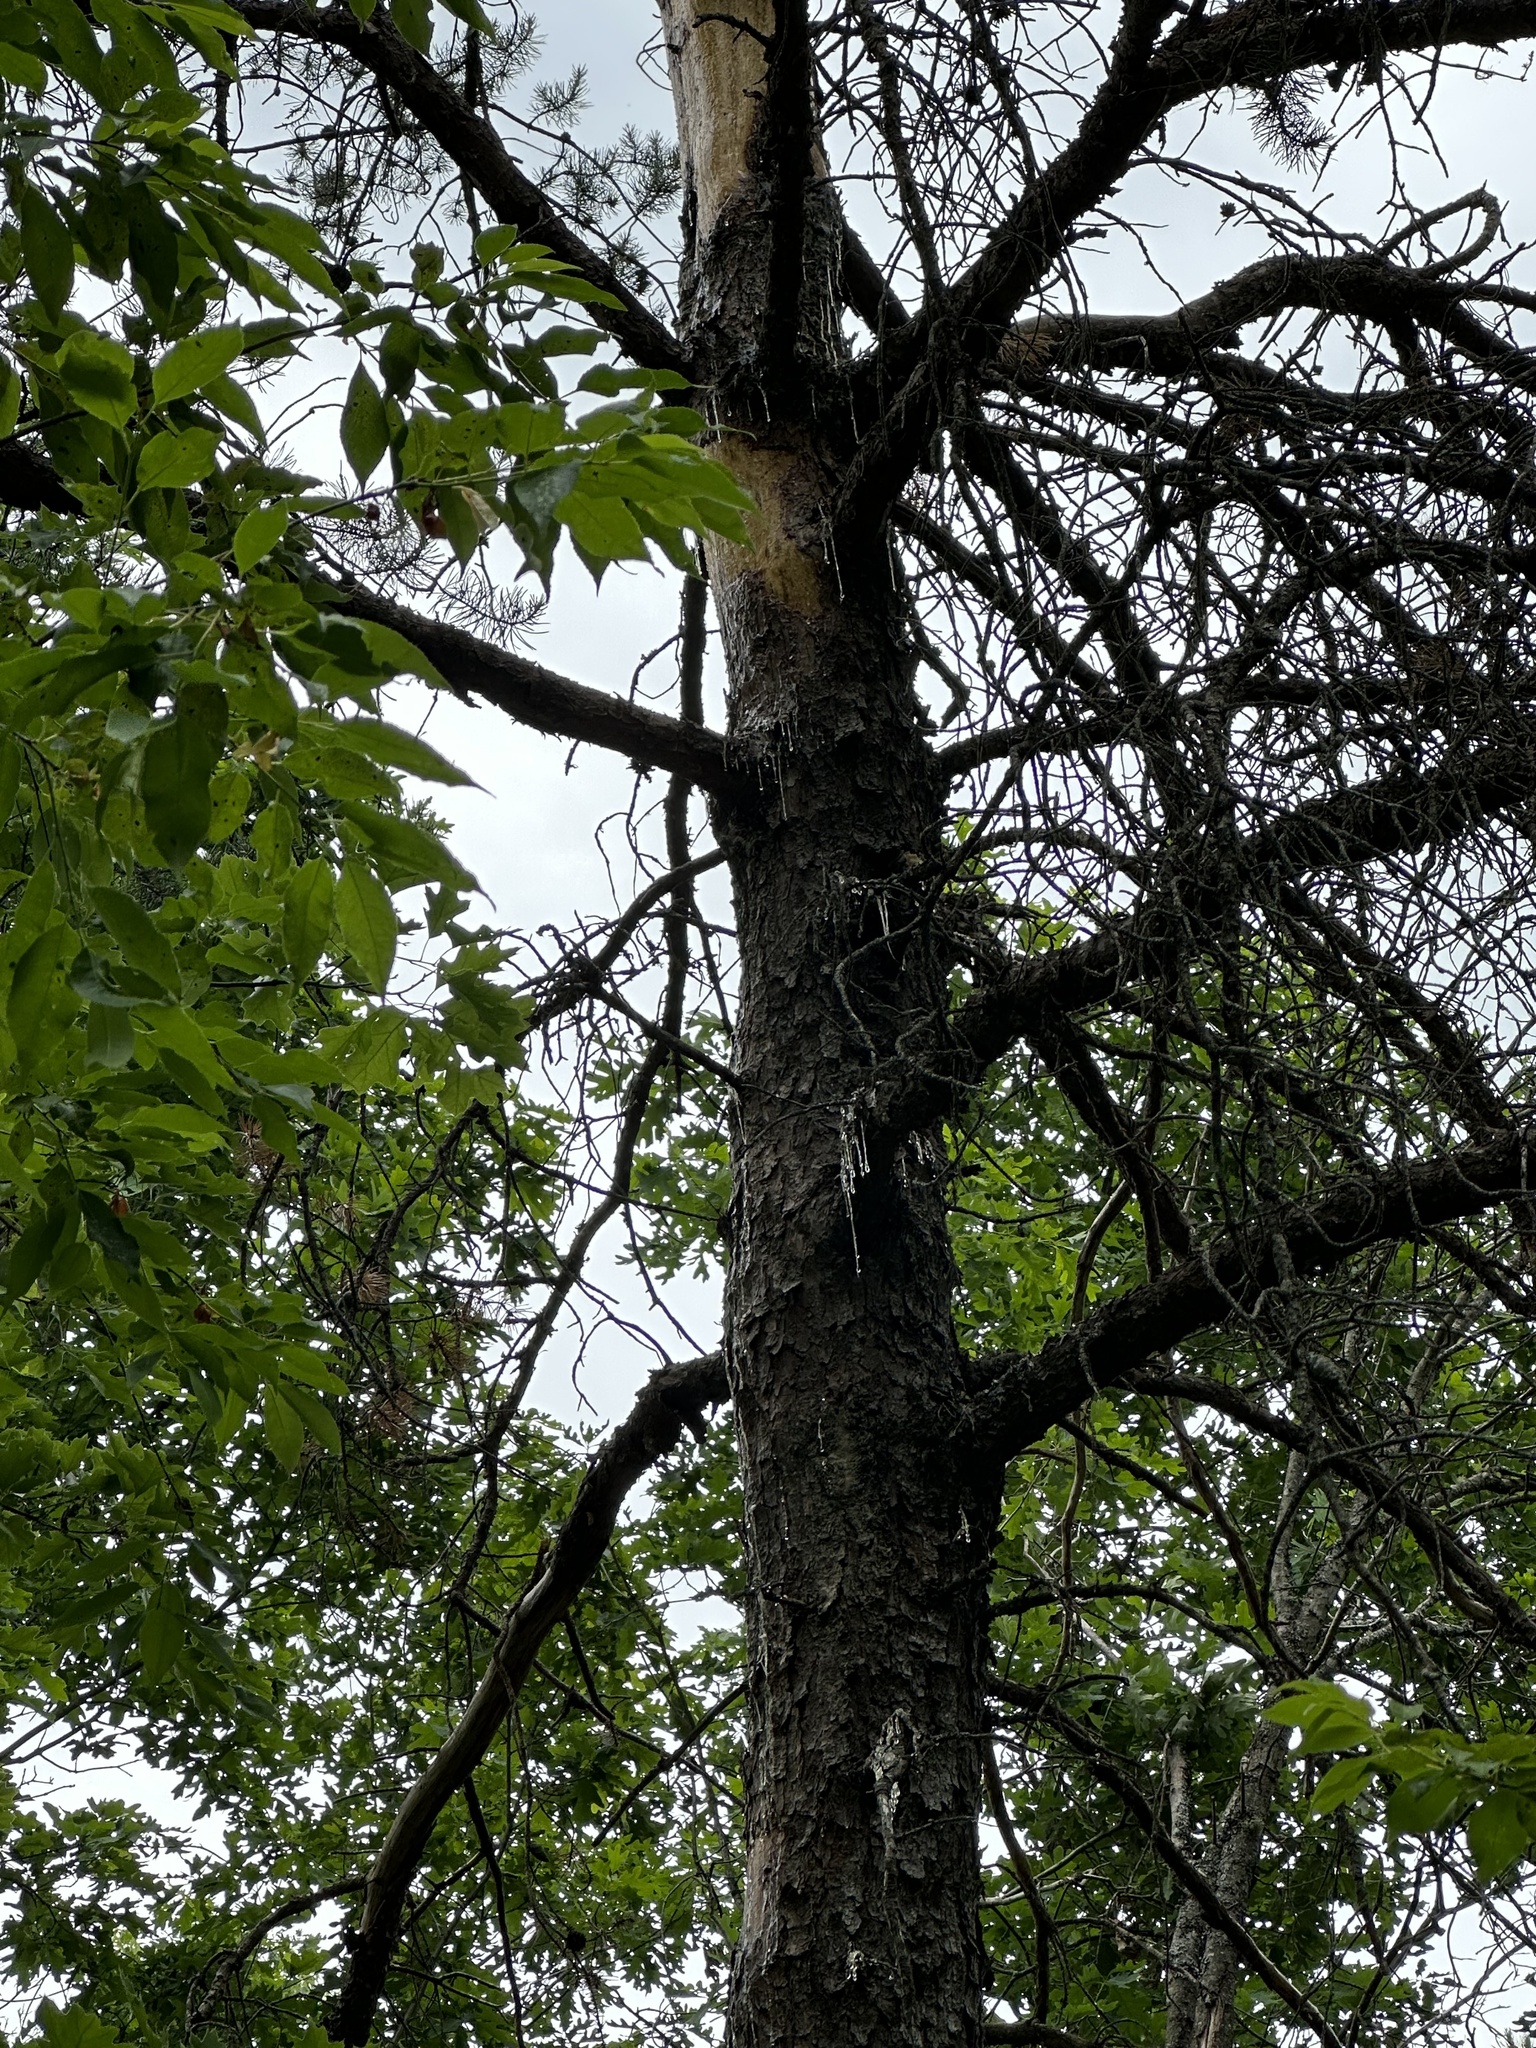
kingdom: Animalia
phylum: Chordata
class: Mammalia
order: Rodentia
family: Erethizontidae
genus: Erethizon
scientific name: Erethizon dorsatus
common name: North american porcupine
